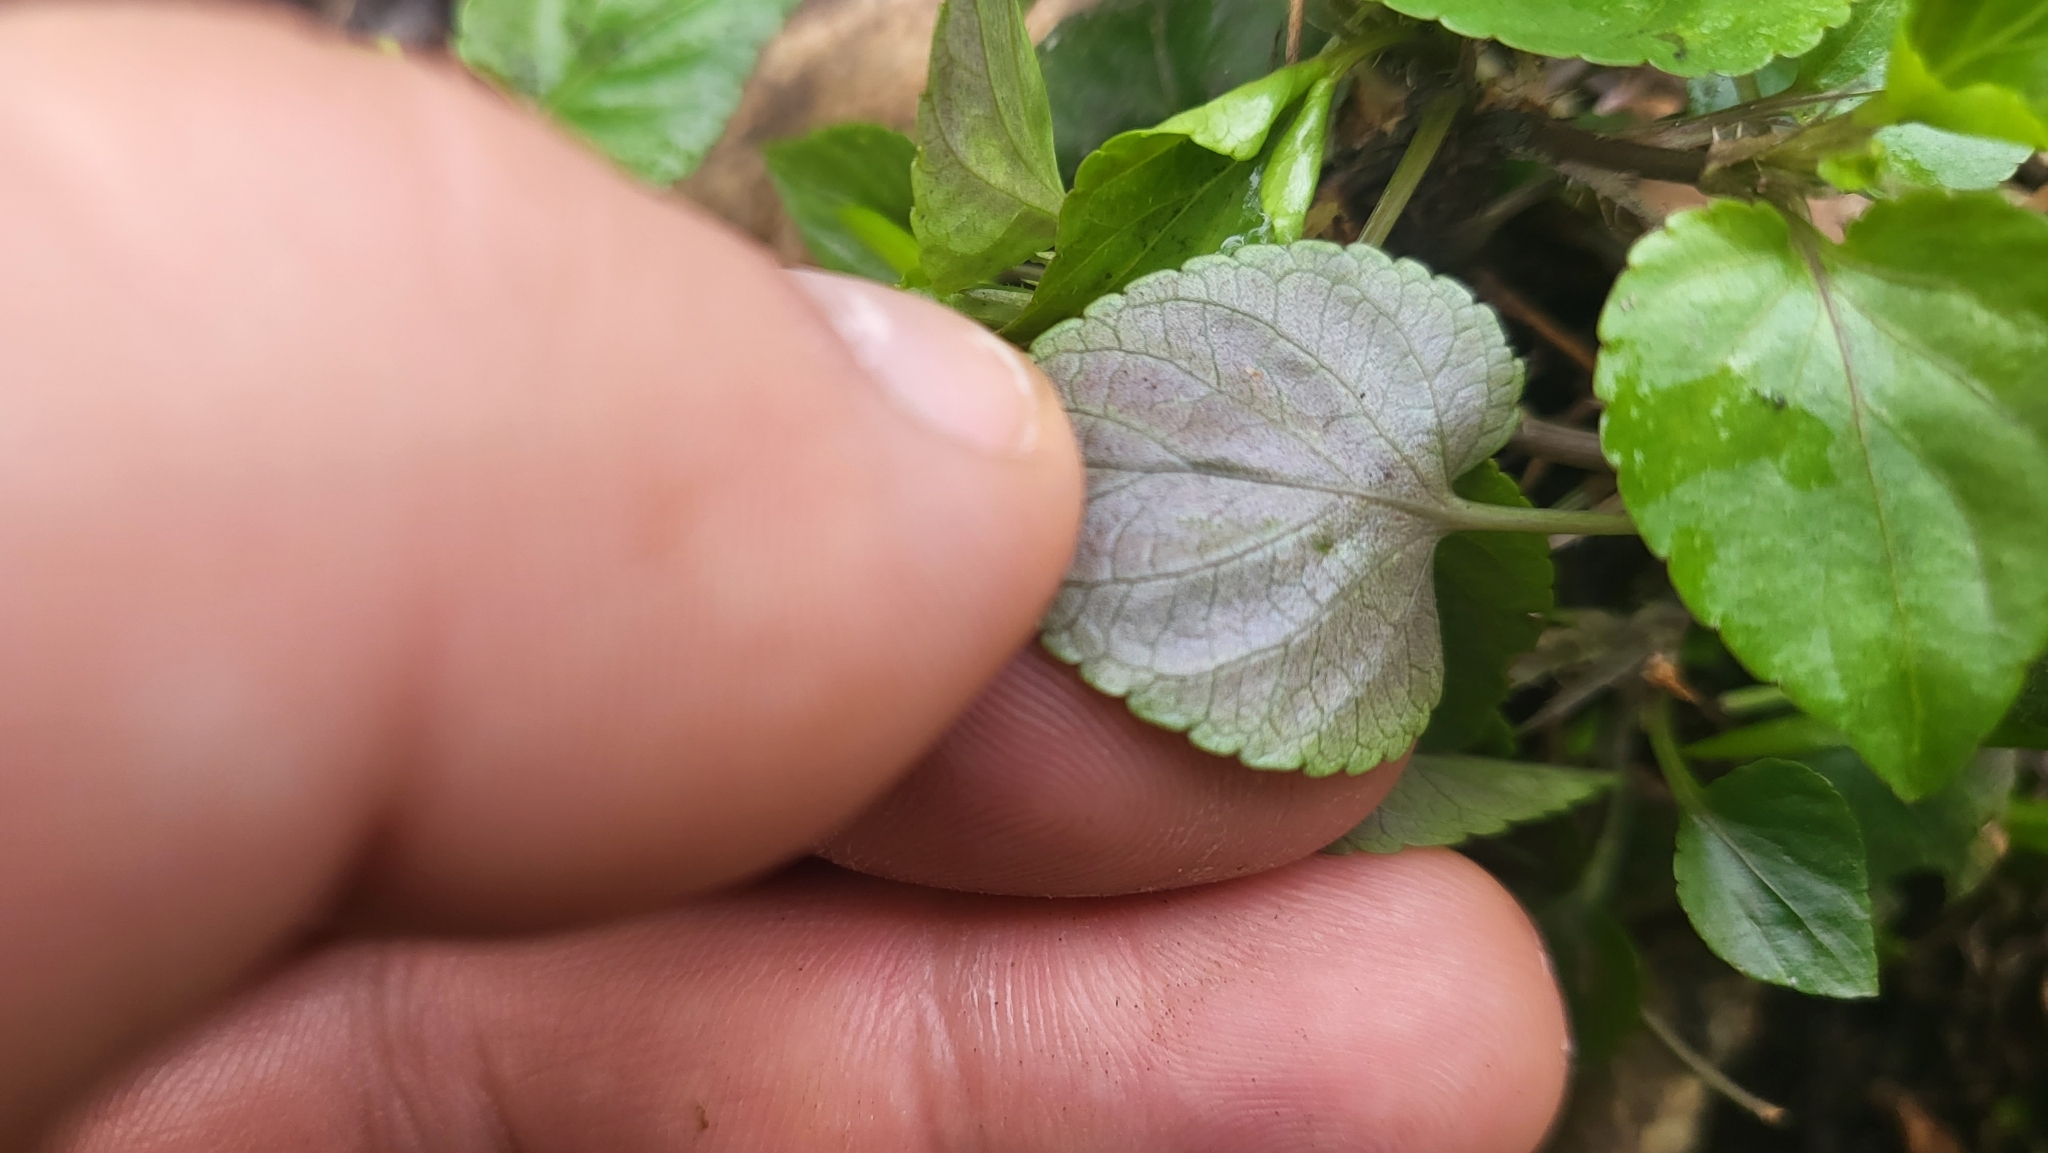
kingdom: Plantae
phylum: Tracheophyta
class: Magnoliopsida
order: Malpighiales
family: Violaceae
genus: Viola
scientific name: Viola reichenbachiana
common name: Early dog-violet
